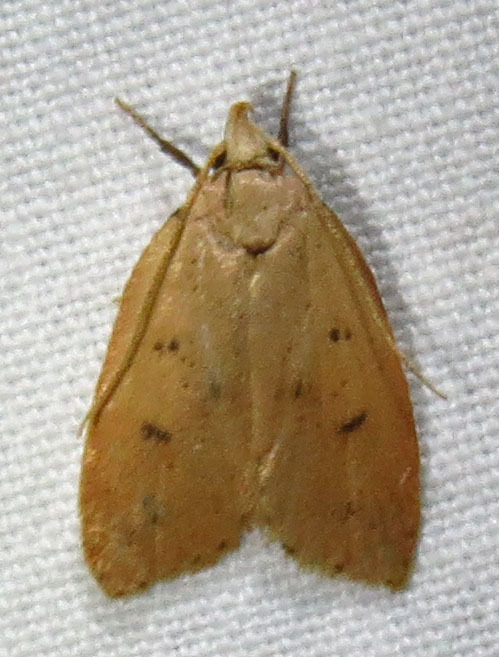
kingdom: Animalia
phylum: Arthropoda
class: Insecta
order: Lepidoptera
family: Peleopodidae
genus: Machimia
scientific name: Machimia tentoriferella
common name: Gold-striped leaftier moth
